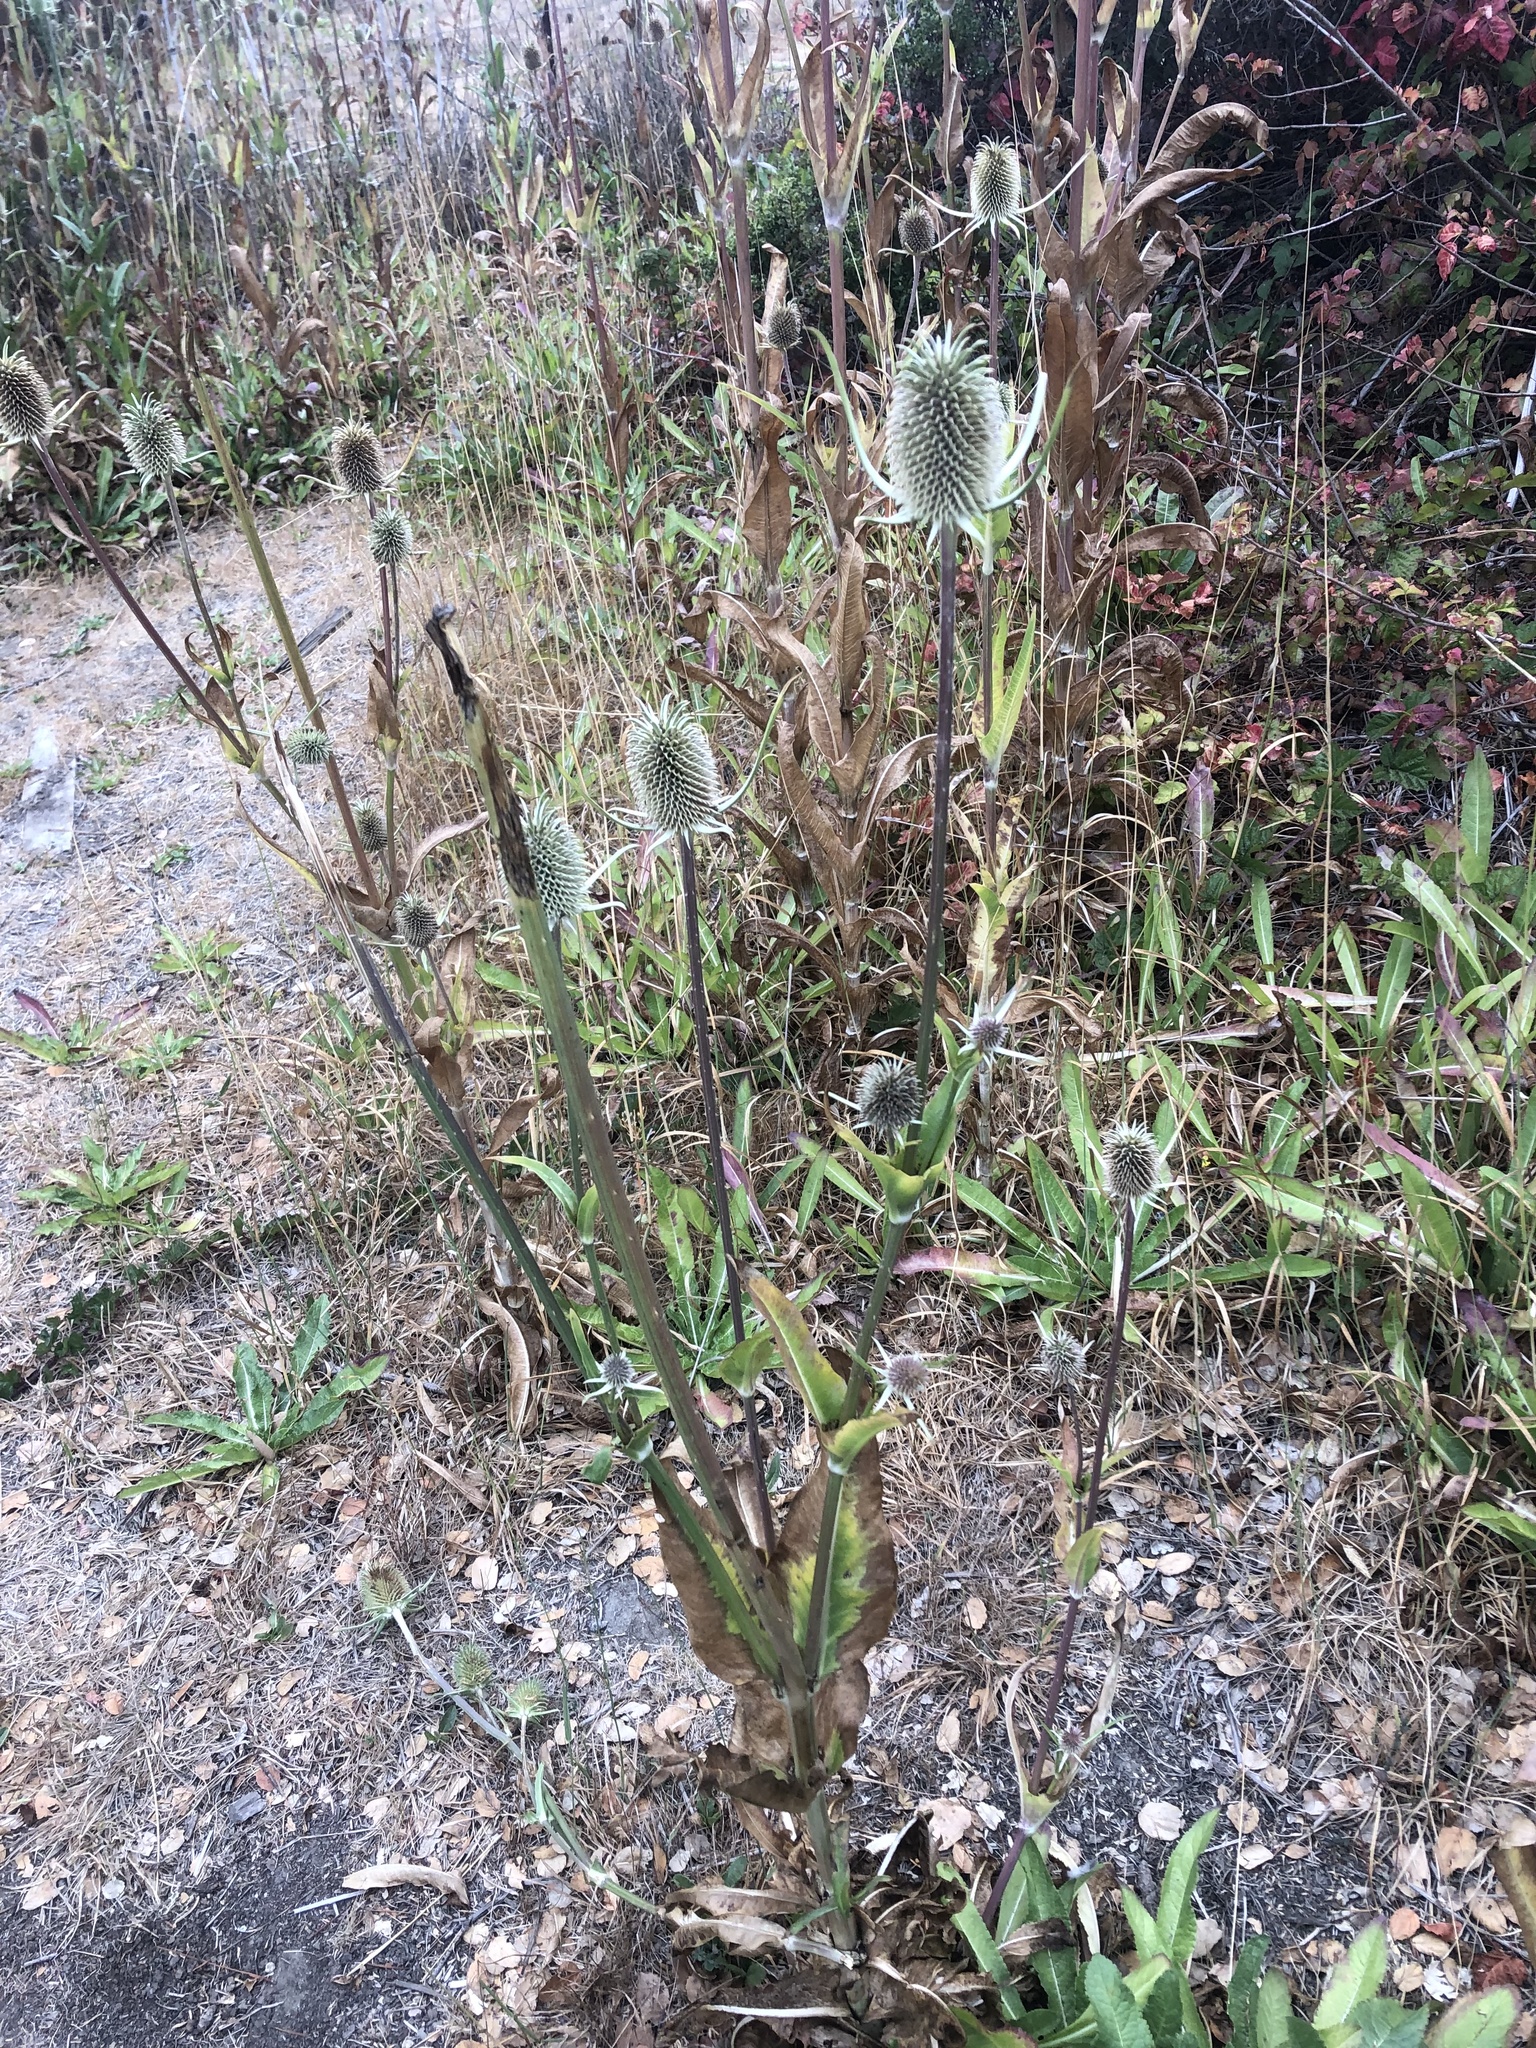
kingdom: Plantae
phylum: Tracheophyta
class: Magnoliopsida
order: Dipsacales
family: Caprifoliaceae
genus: Dipsacus
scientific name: Dipsacus sativus
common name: Fuller's teasel
